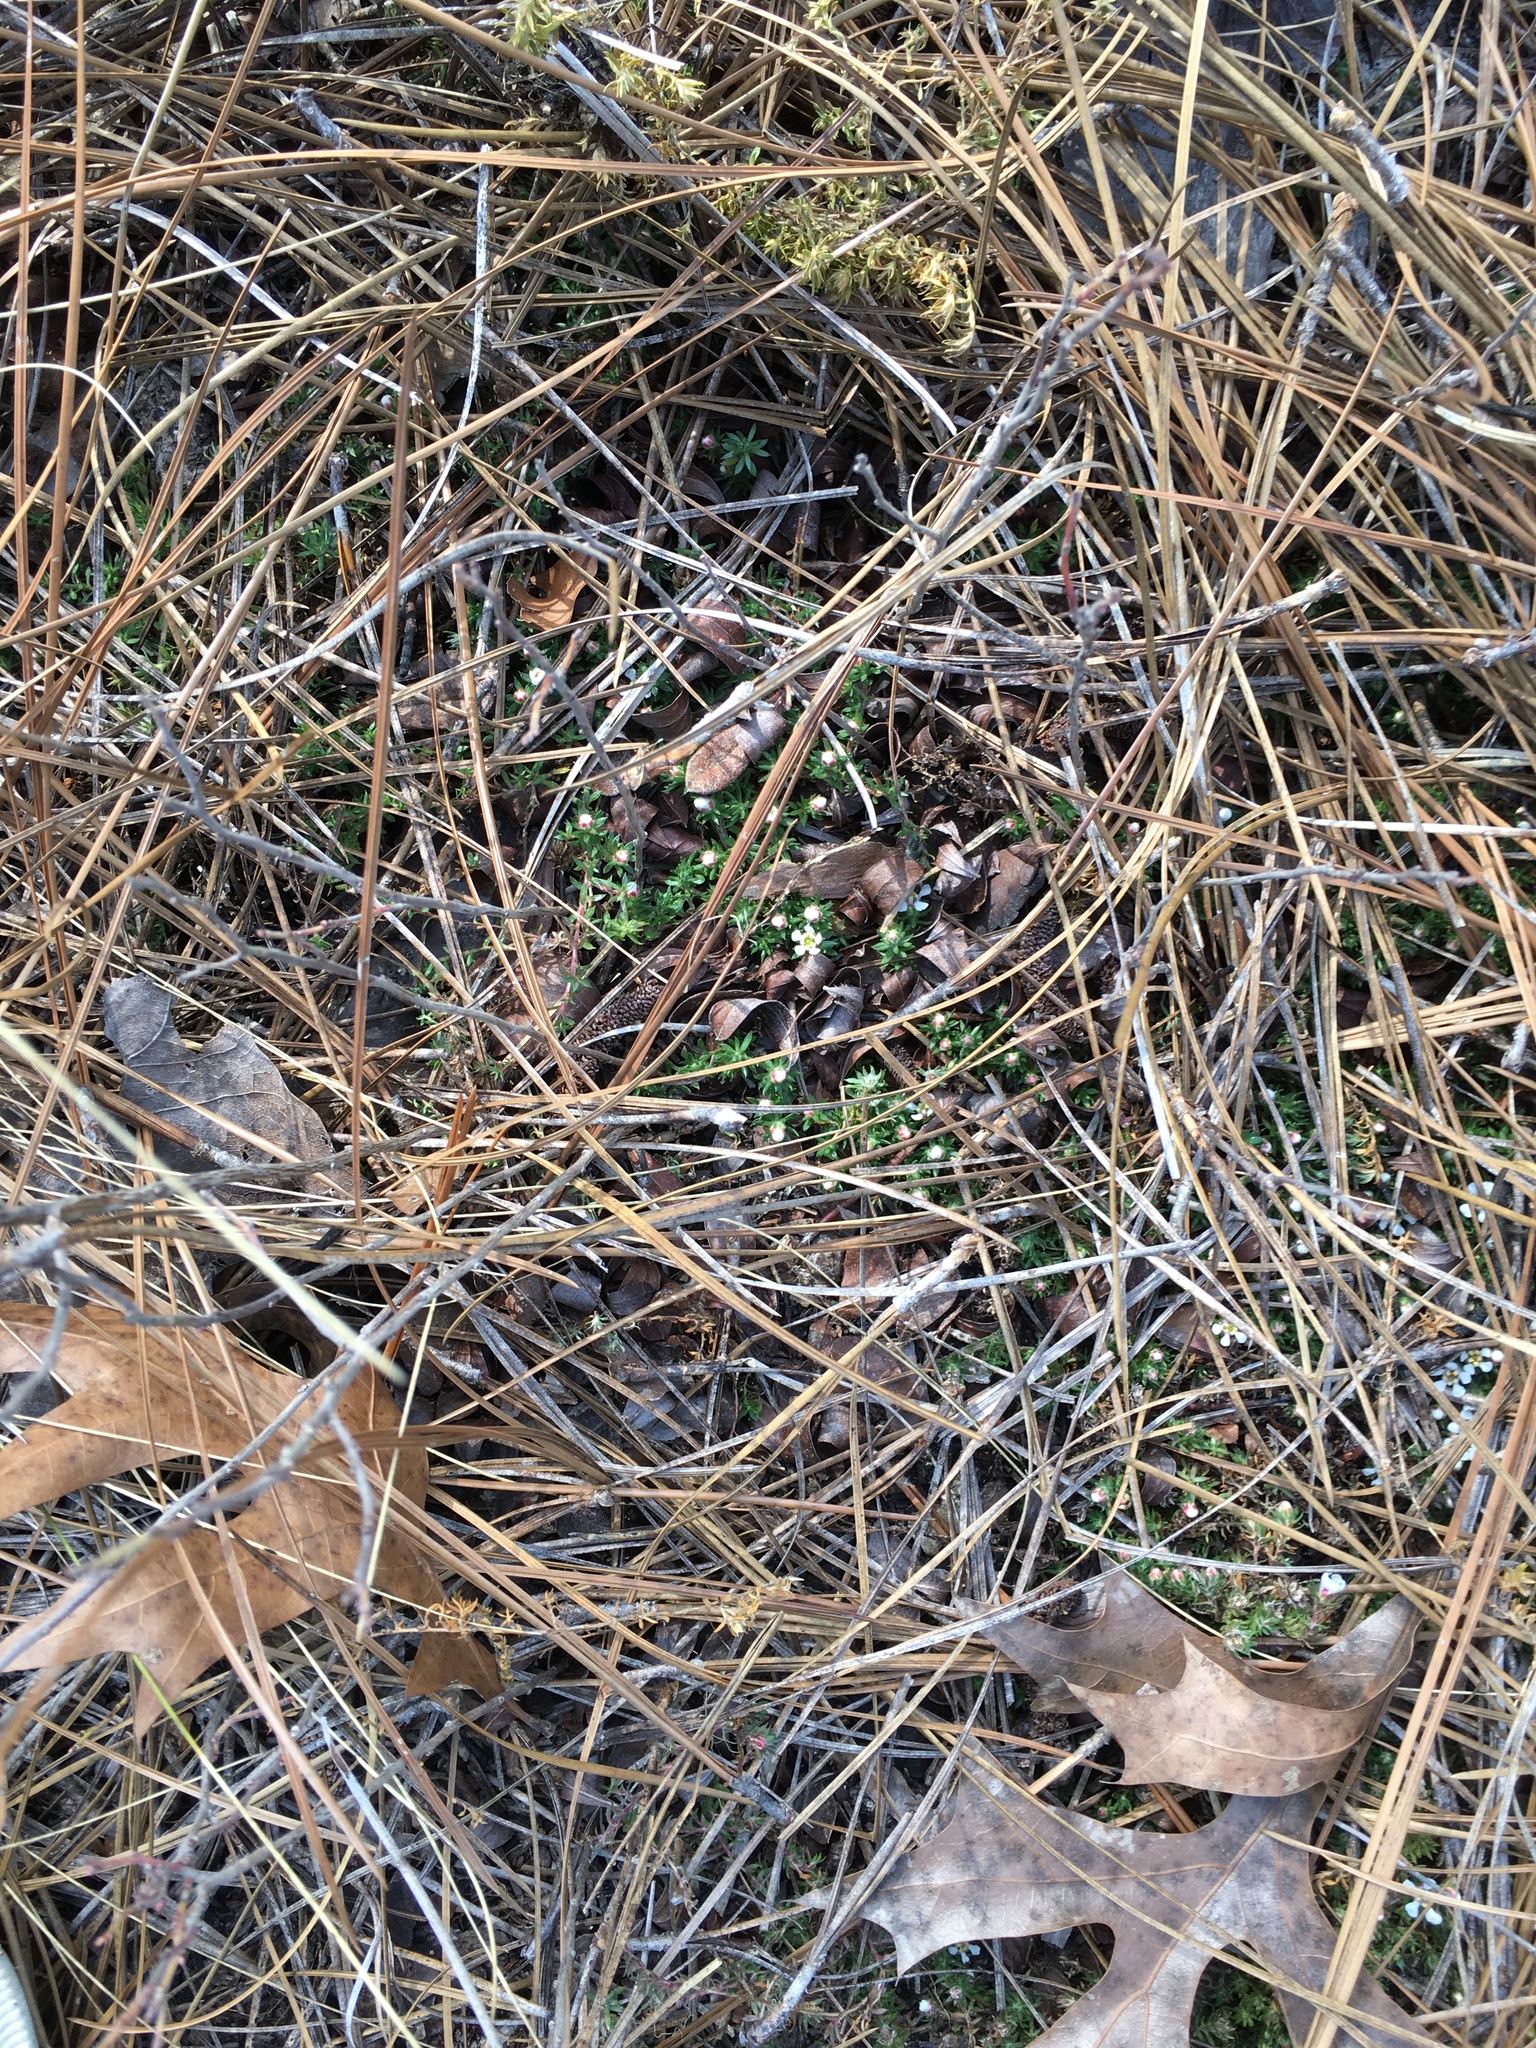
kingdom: Plantae
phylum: Tracheophyta
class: Magnoliopsida
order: Ericales
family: Diapensiaceae
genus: Pyxidanthera
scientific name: Pyxidanthera brevifolia
